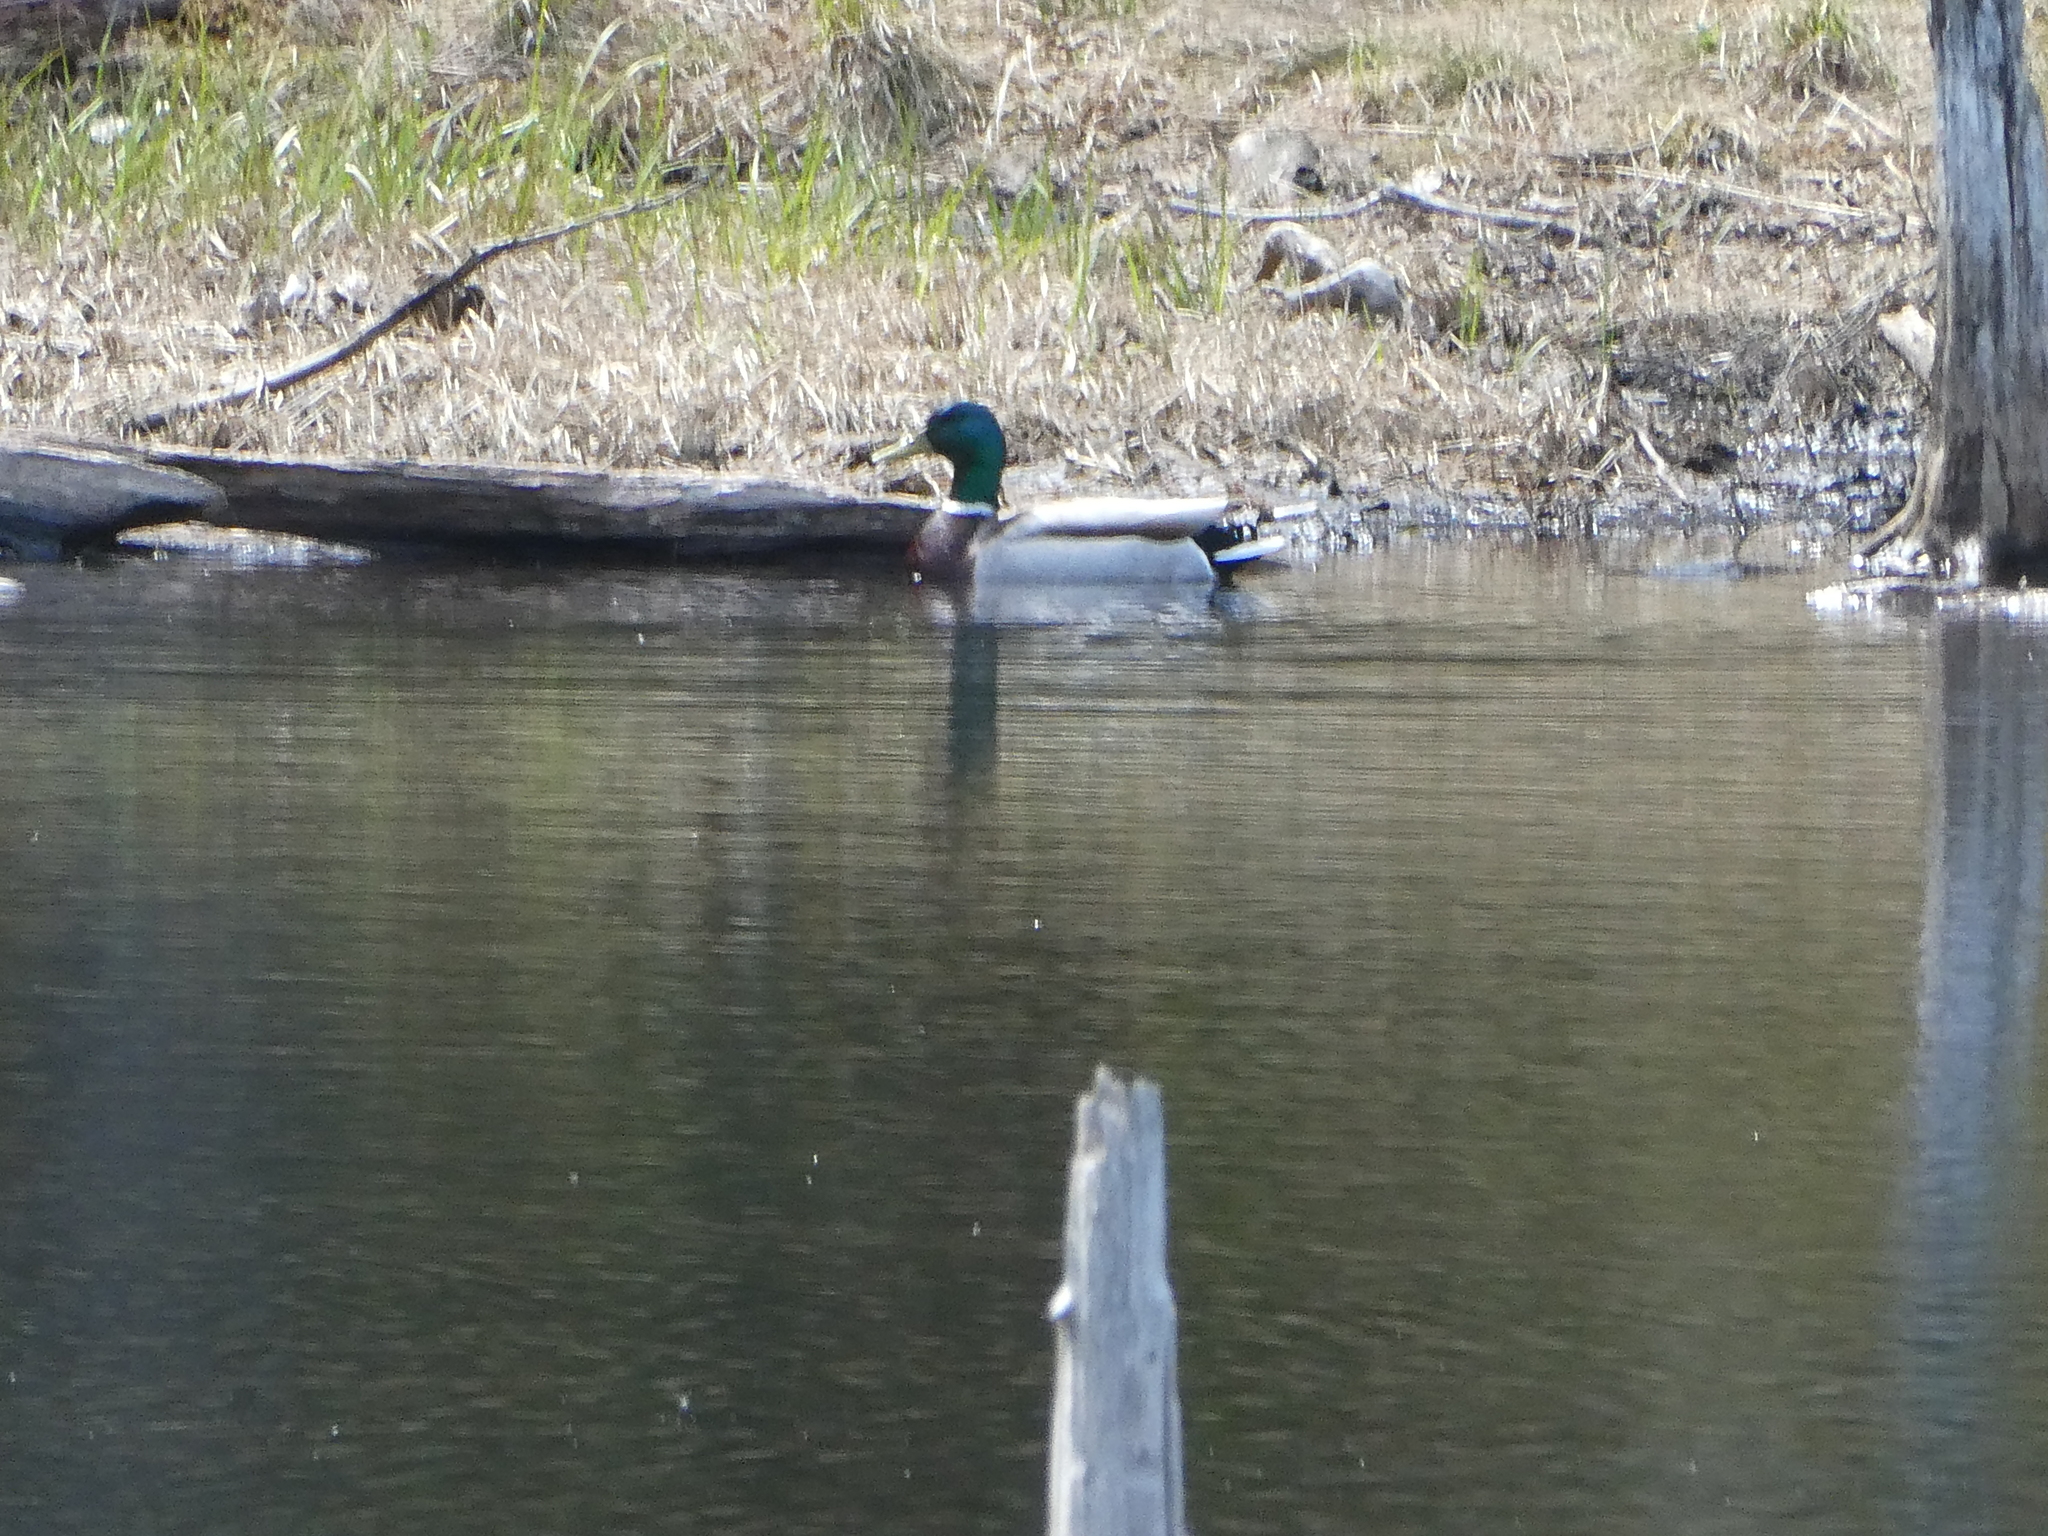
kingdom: Animalia
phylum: Chordata
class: Aves
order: Anseriformes
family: Anatidae
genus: Anas
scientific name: Anas platyrhynchos
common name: Mallard
